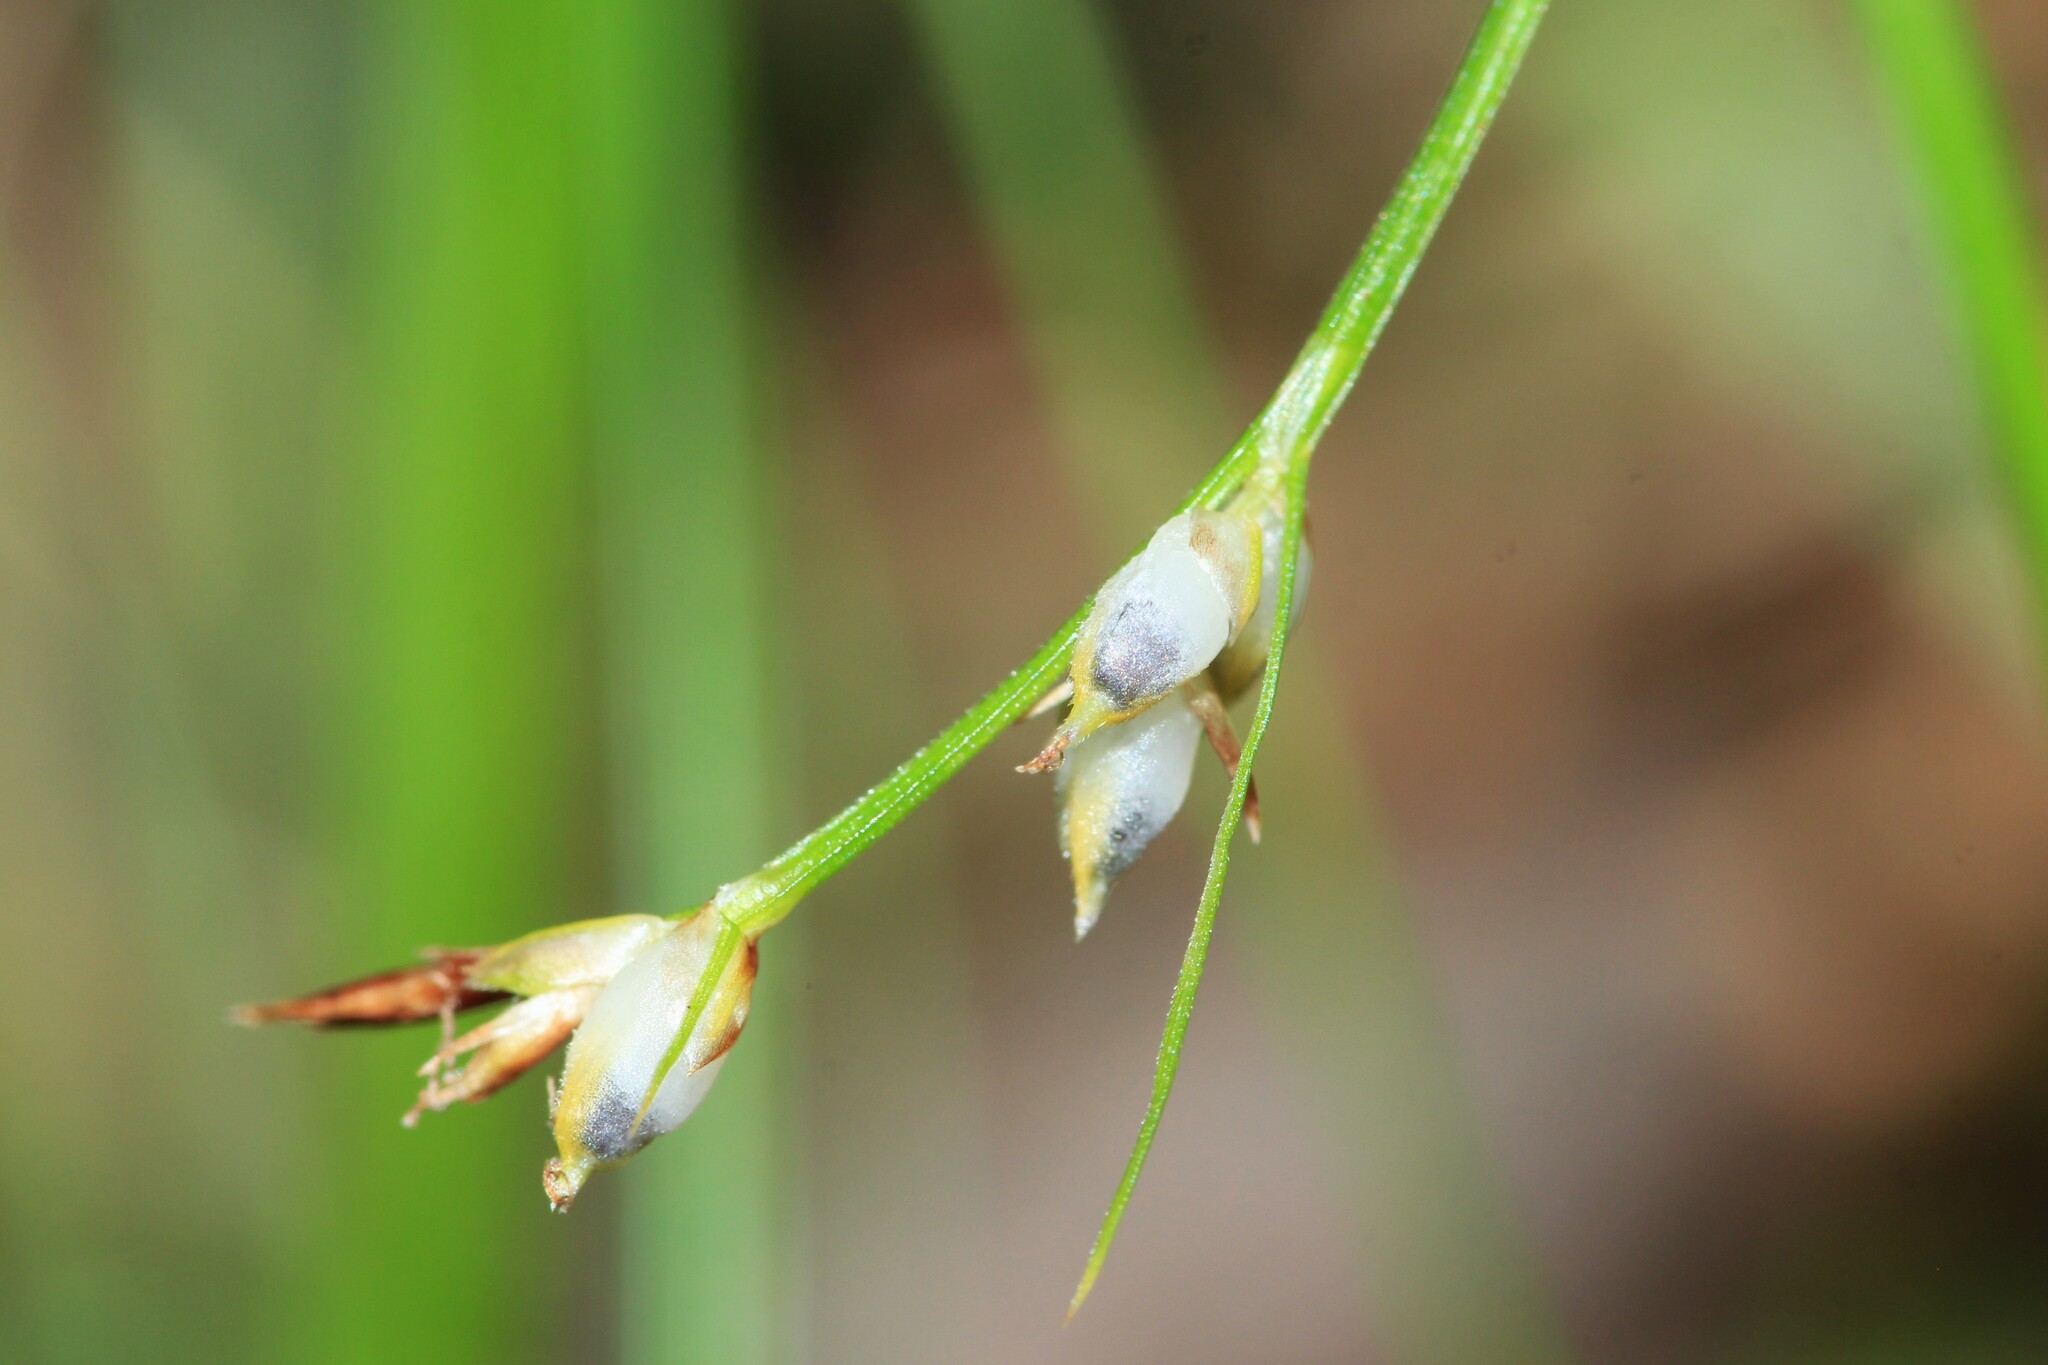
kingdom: Plantae
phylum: Tracheophyta
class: Liliopsida
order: Poales
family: Cyperaceae
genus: Carex
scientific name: Carex novae-angliae
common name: New england sedge
